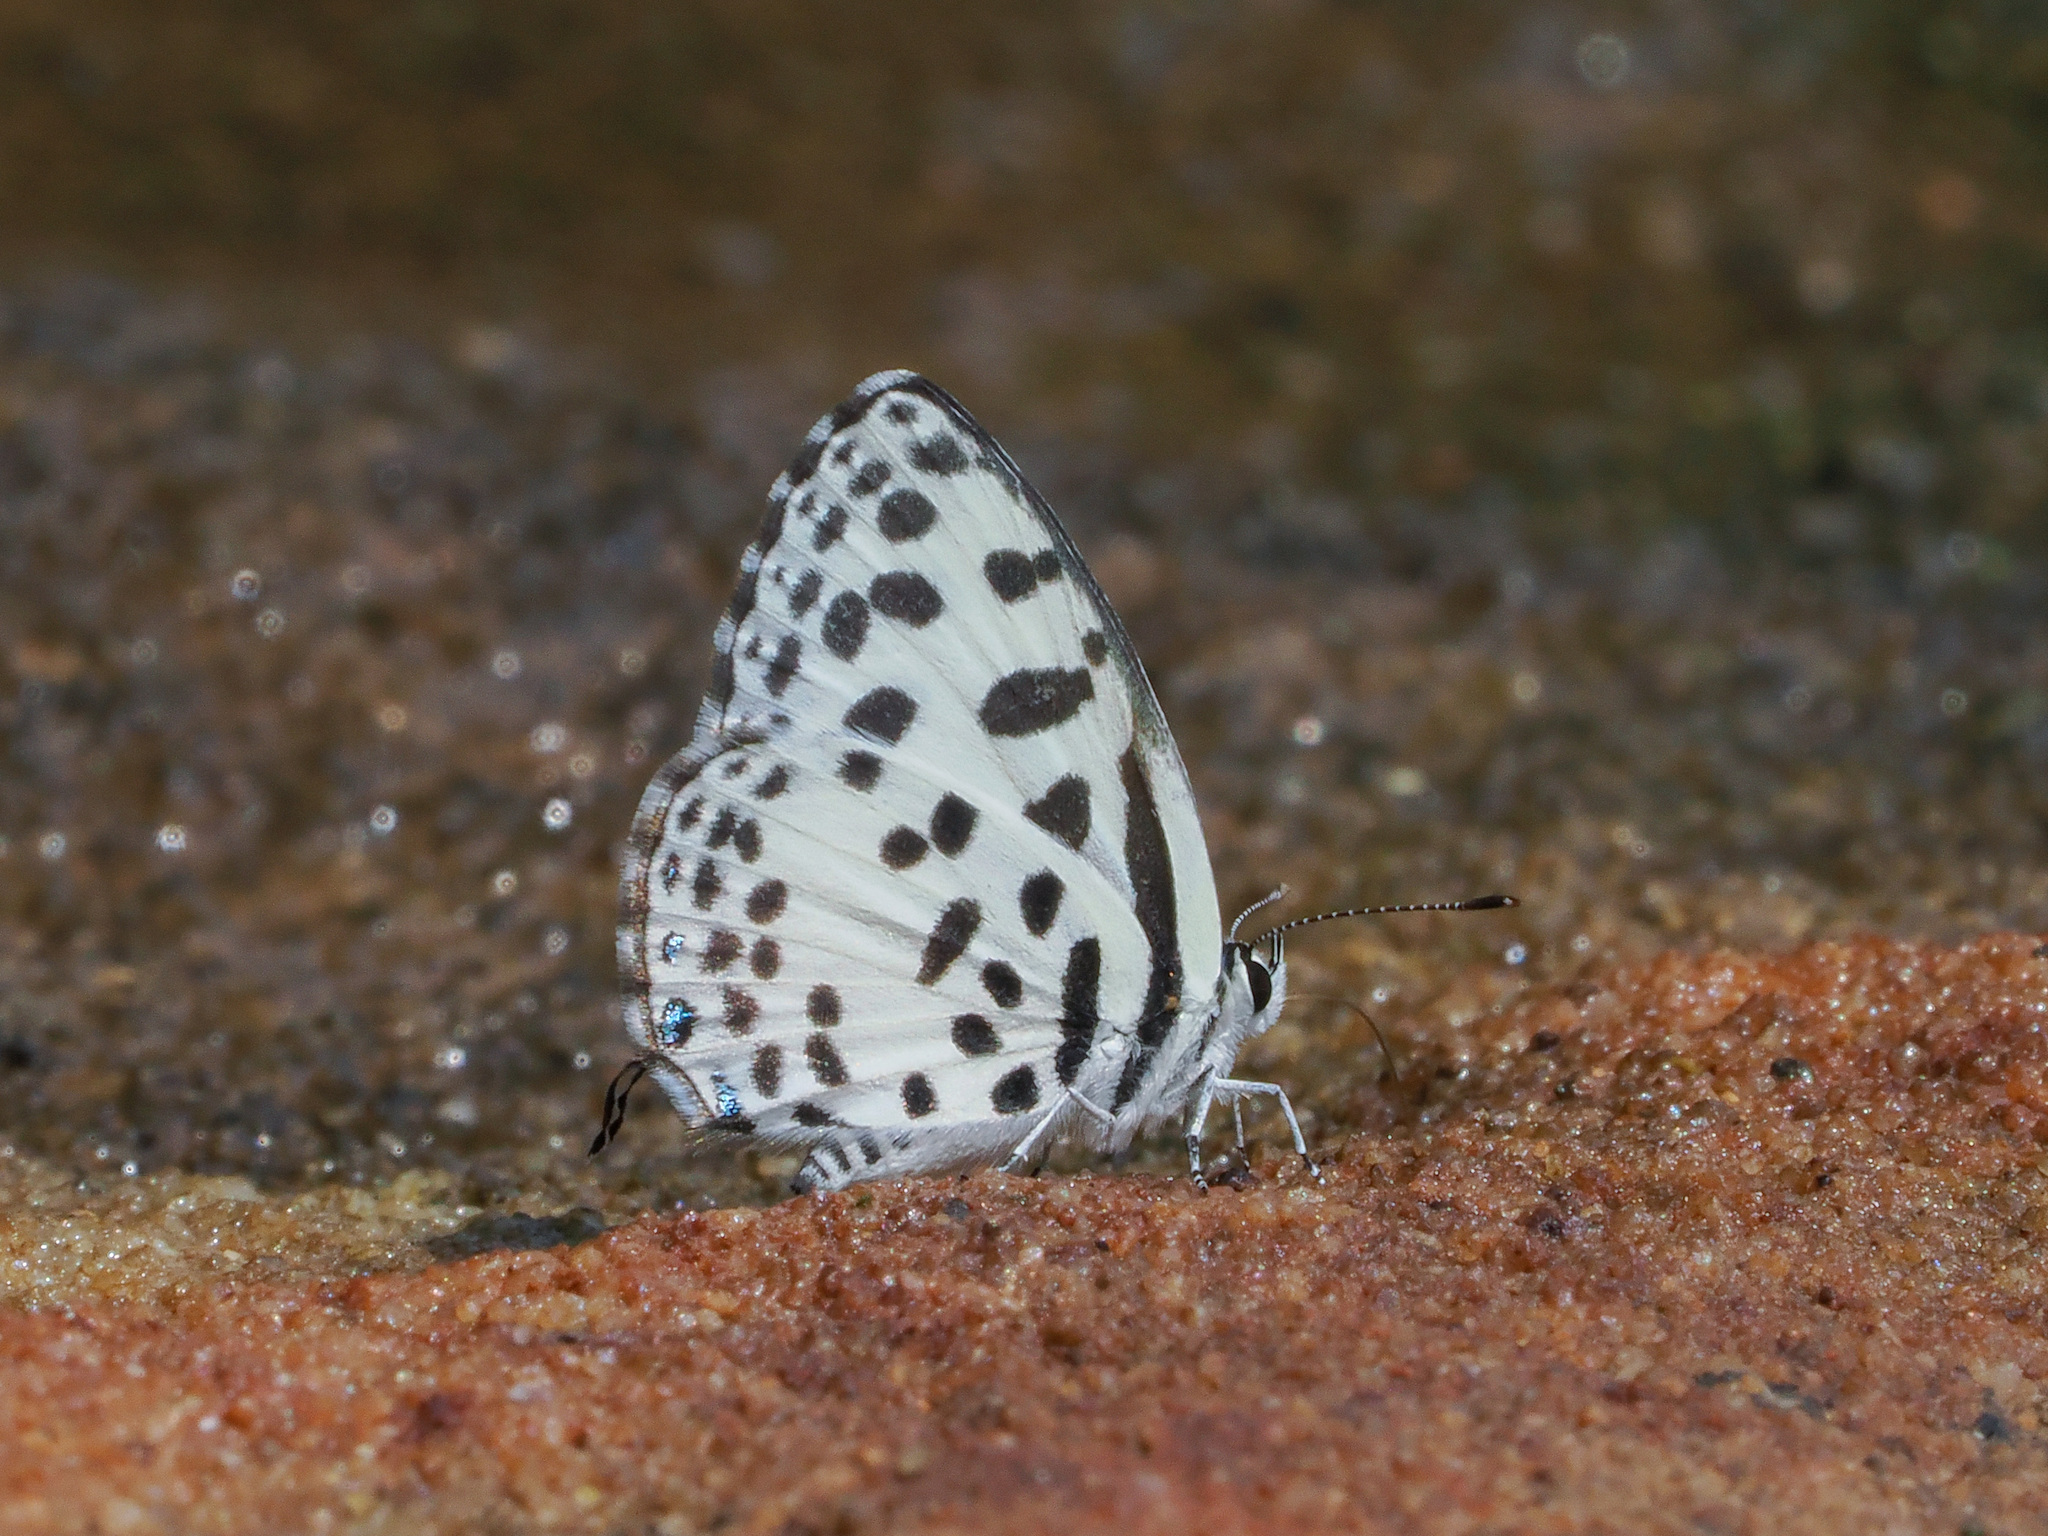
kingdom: Animalia
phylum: Arthropoda
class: Insecta
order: Lepidoptera
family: Lycaenidae
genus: Castalius
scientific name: Castalius rosimon
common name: Common pierrot
